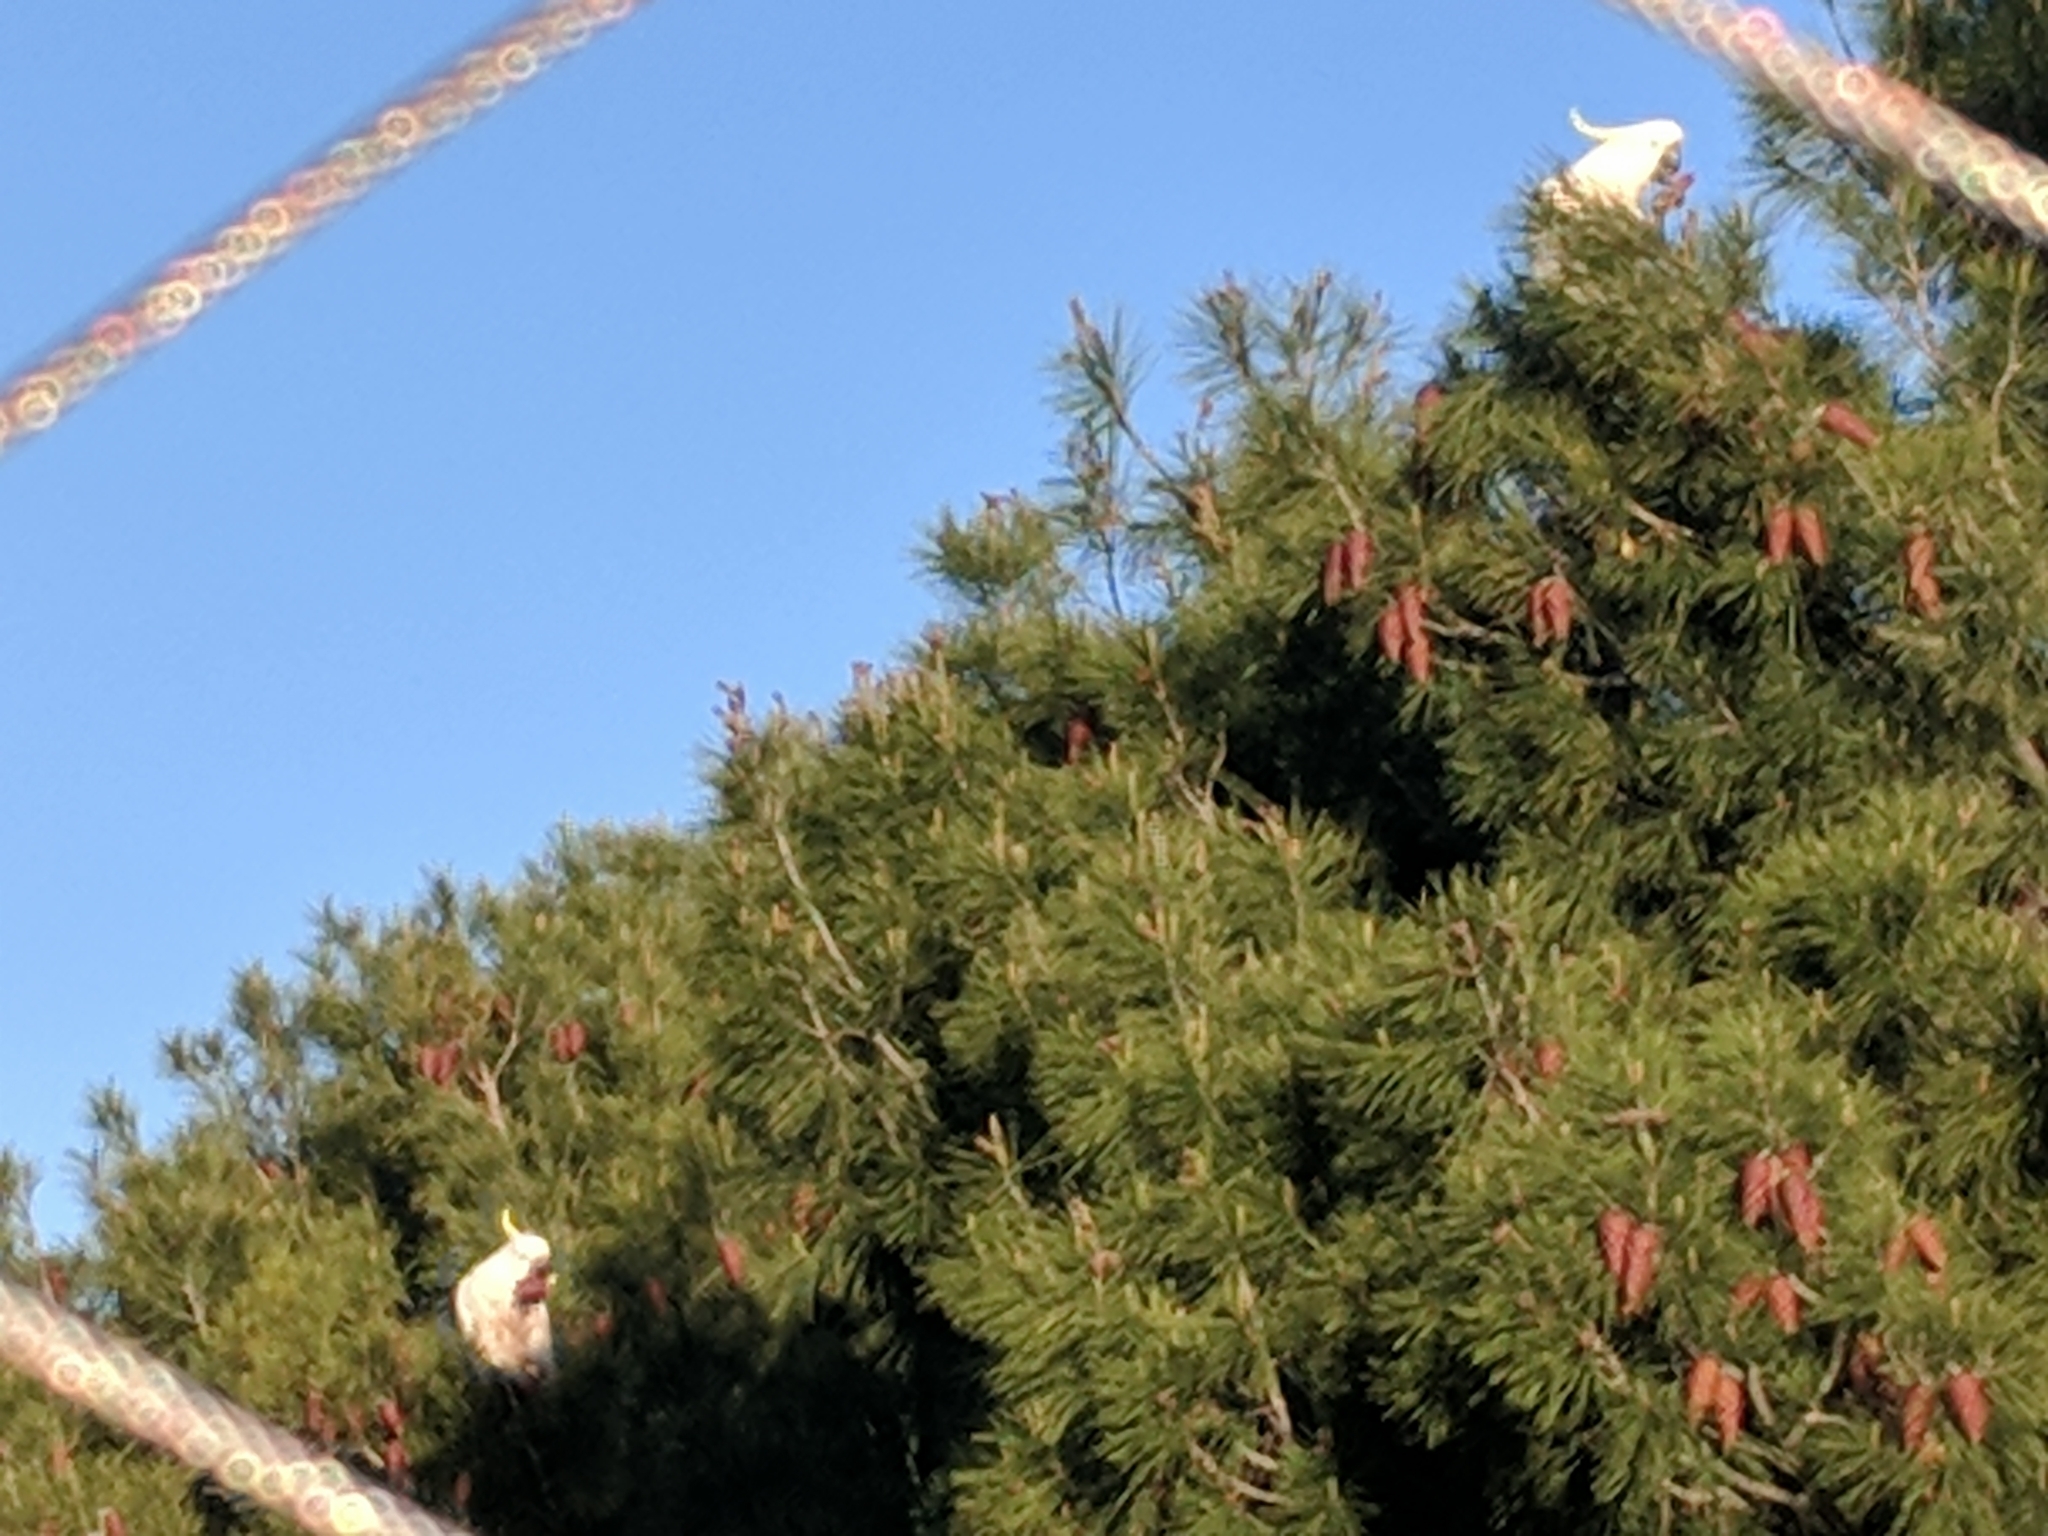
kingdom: Animalia
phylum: Chordata
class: Aves
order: Psittaciformes
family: Psittacidae
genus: Cacatua
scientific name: Cacatua galerita
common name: Sulphur-crested cockatoo
